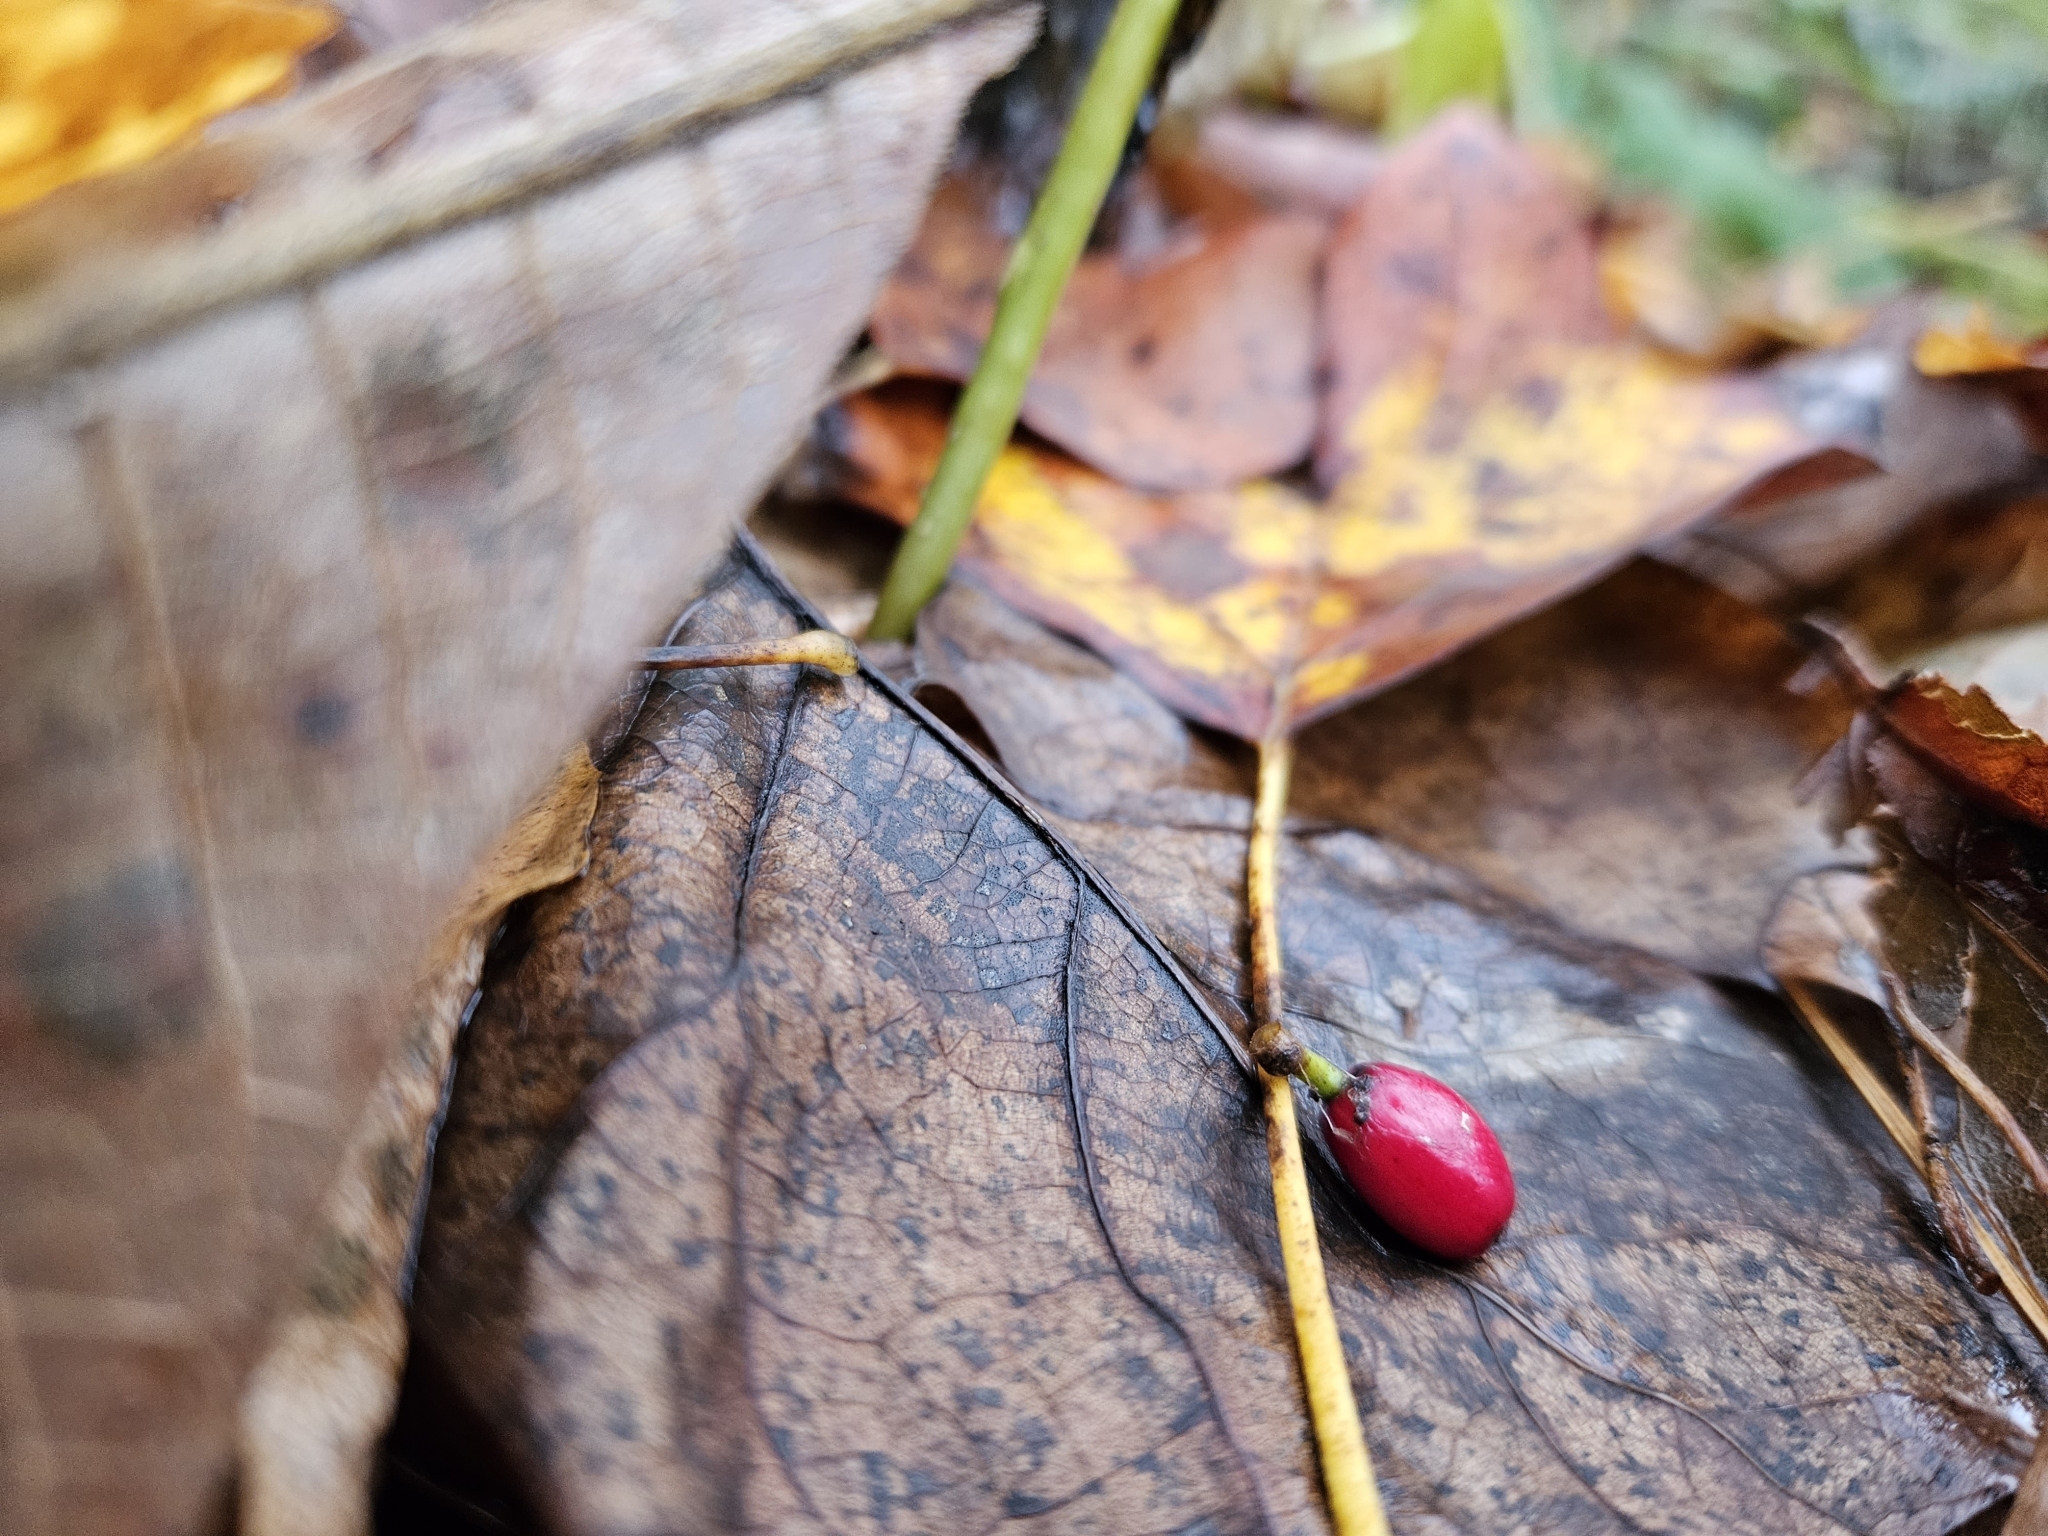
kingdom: Plantae
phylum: Tracheophyta
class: Magnoliopsida
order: Laurales
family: Lauraceae
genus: Lindera
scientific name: Lindera benzoin
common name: Spicebush
